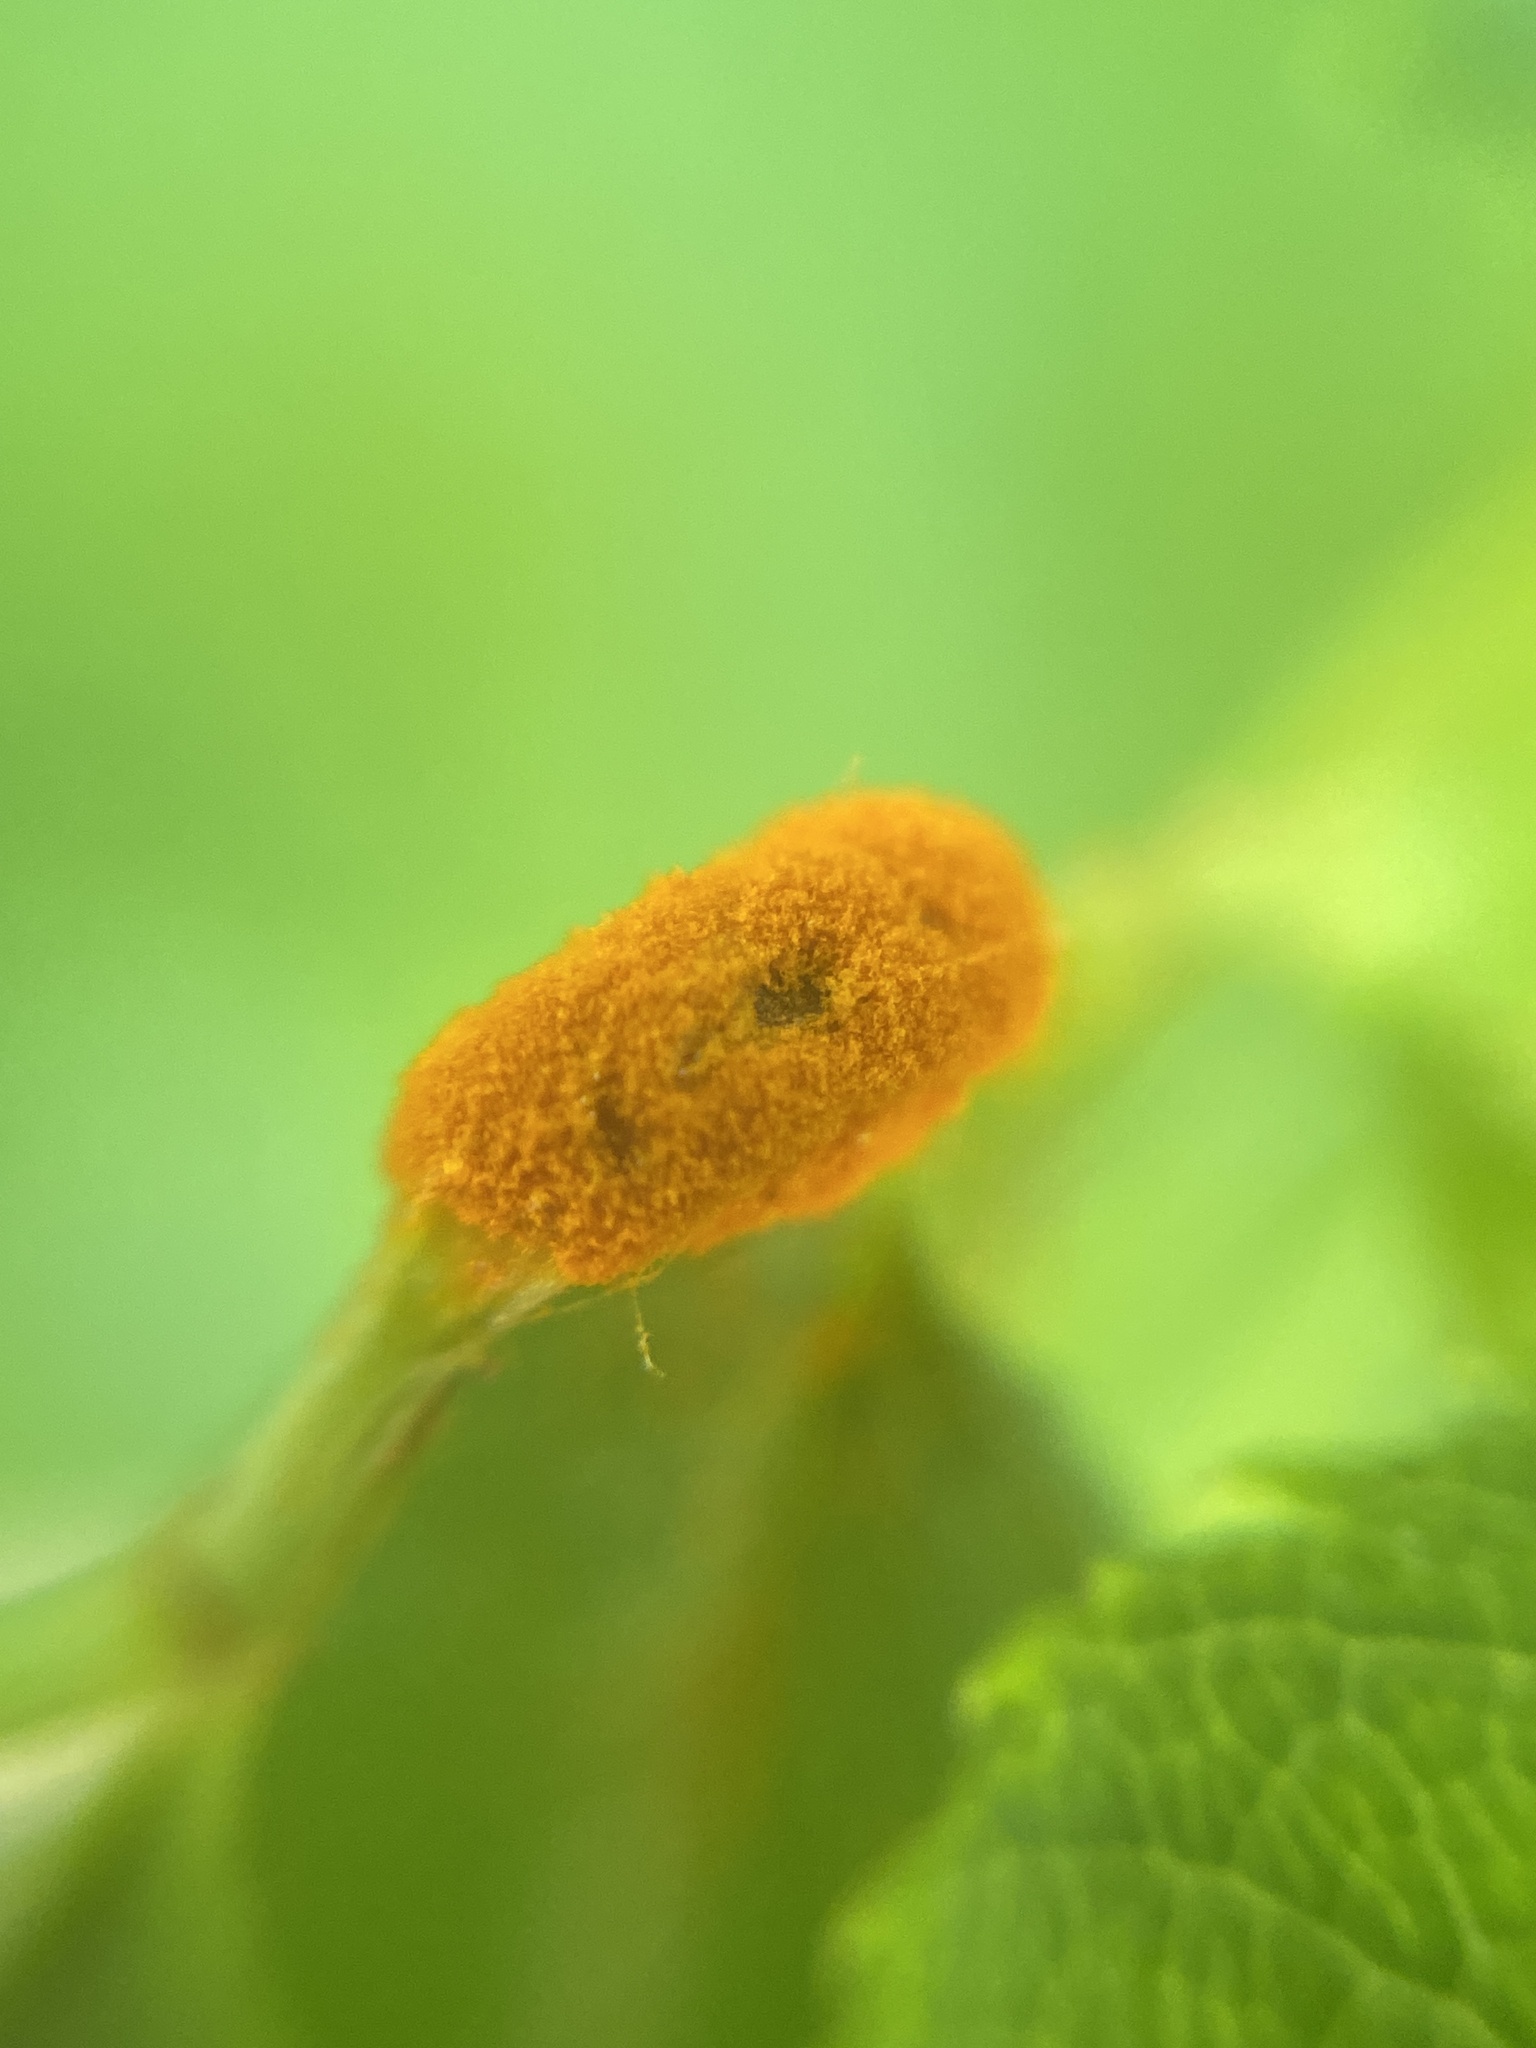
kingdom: Fungi
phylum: Basidiomycota
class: Pucciniomycetes
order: Pucciniales
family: Phragmidiaceae
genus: Phragmidium
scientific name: Phragmidium
